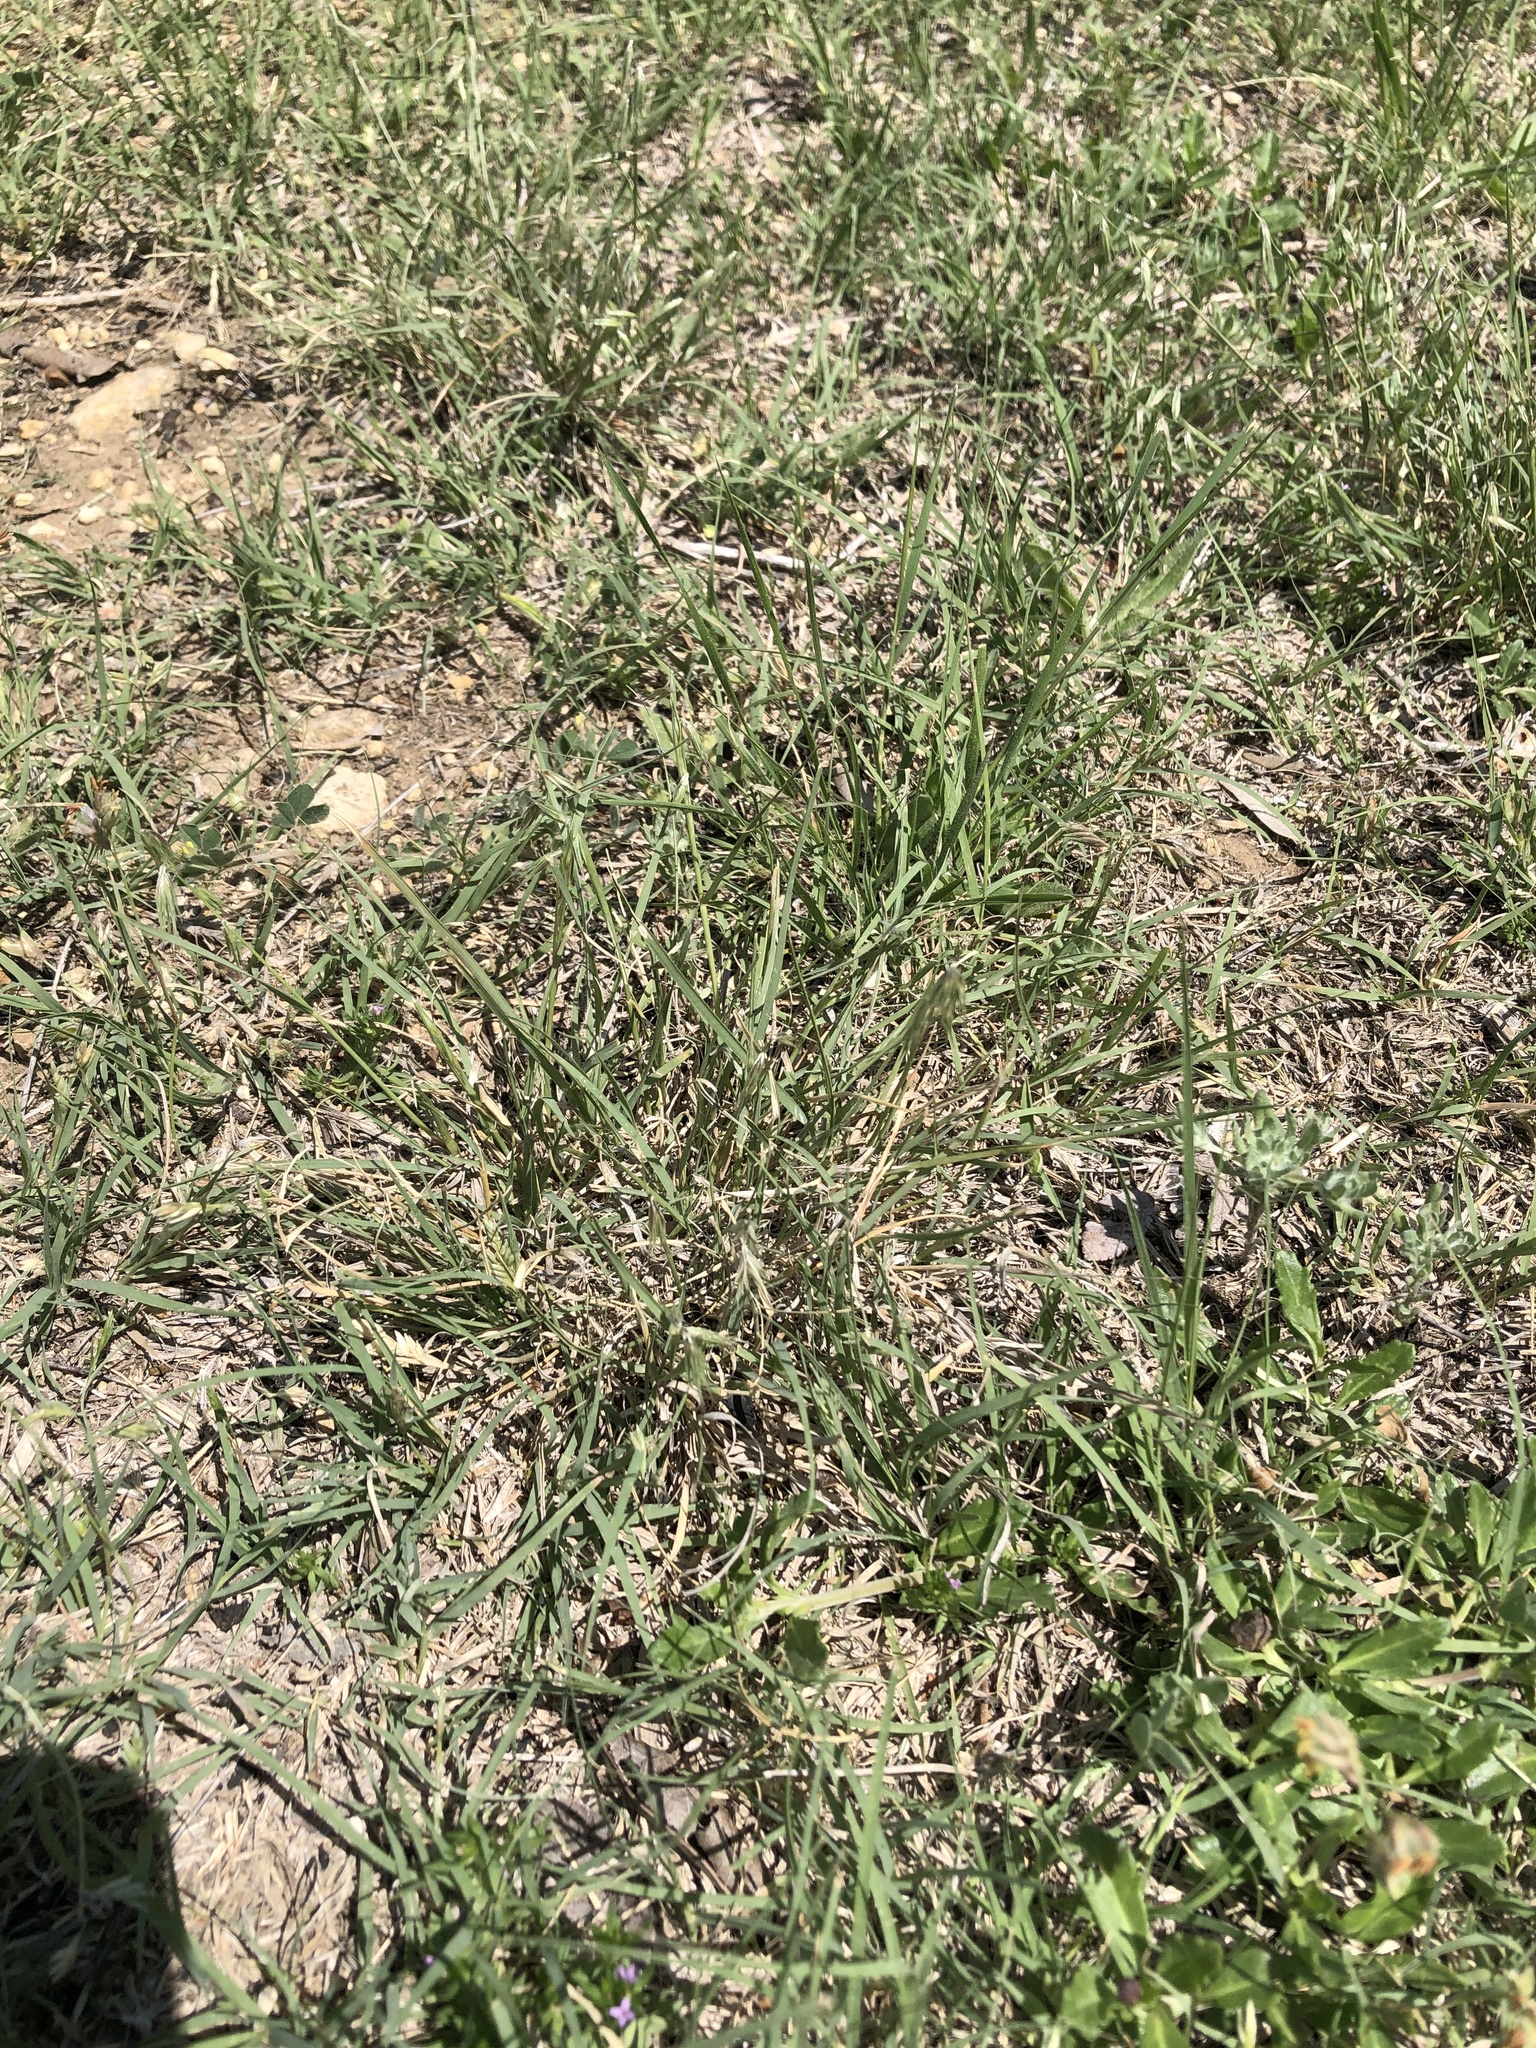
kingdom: Plantae
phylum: Tracheophyta
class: Liliopsida
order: Poales
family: Poaceae
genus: Bouteloua
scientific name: Bouteloua rigidiseta
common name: Texas grama
